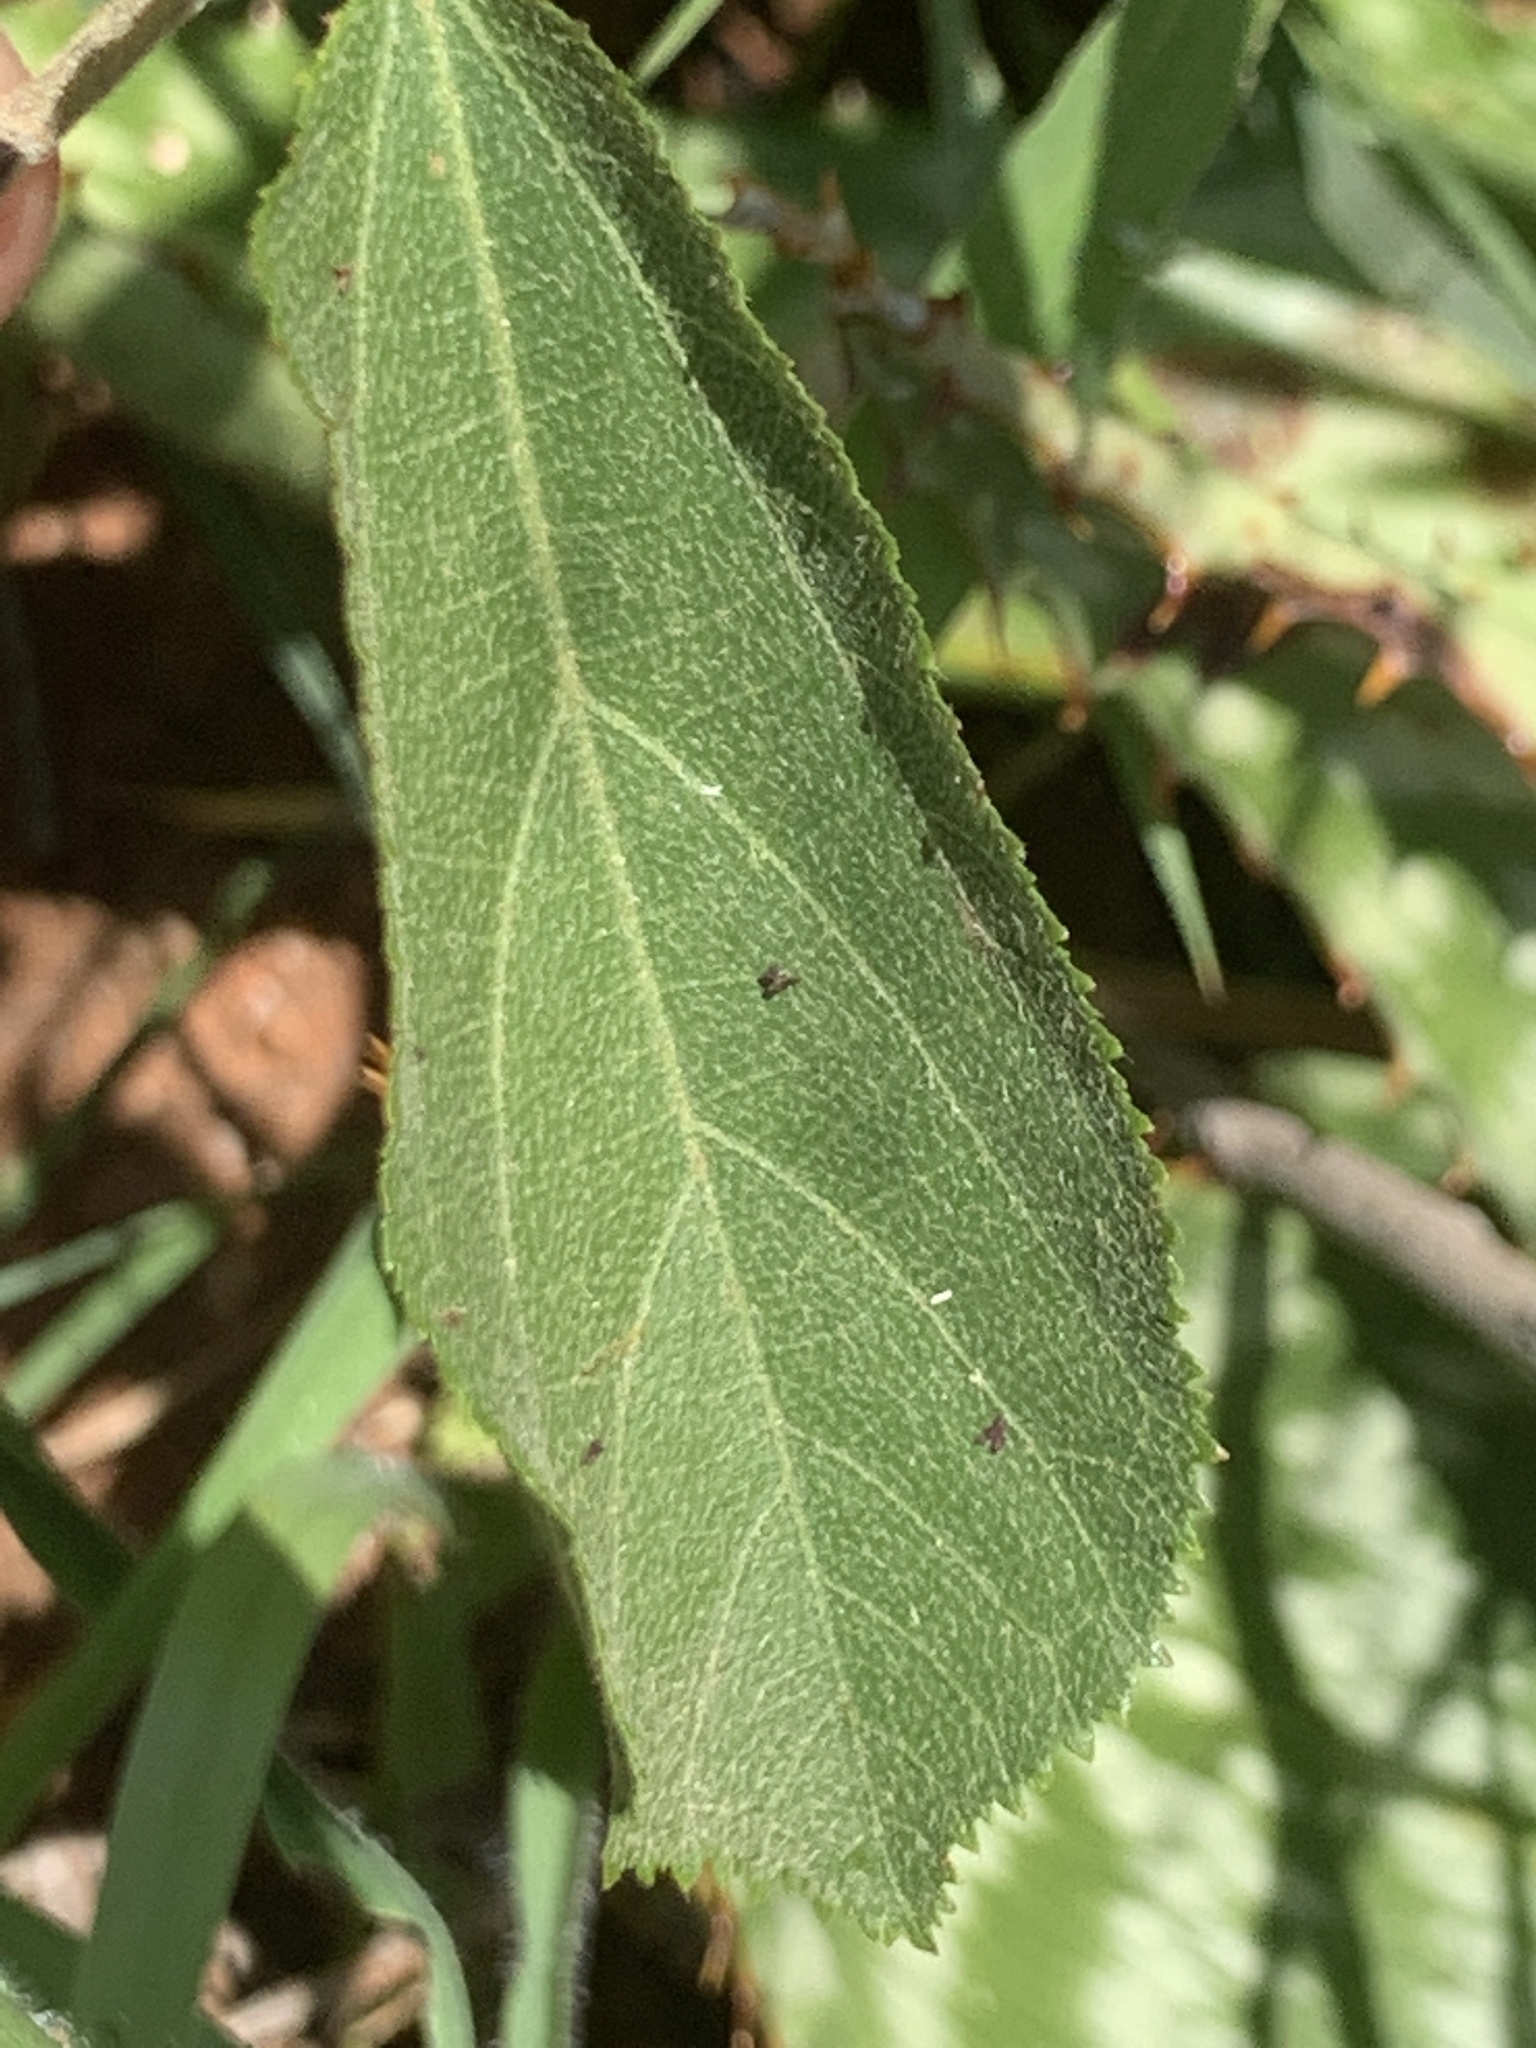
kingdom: Plantae
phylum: Tracheophyta
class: Magnoliopsida
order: Malvales
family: Malvaceae
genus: Grewia
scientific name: Grewia flavescens
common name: Sandpaper raisin
